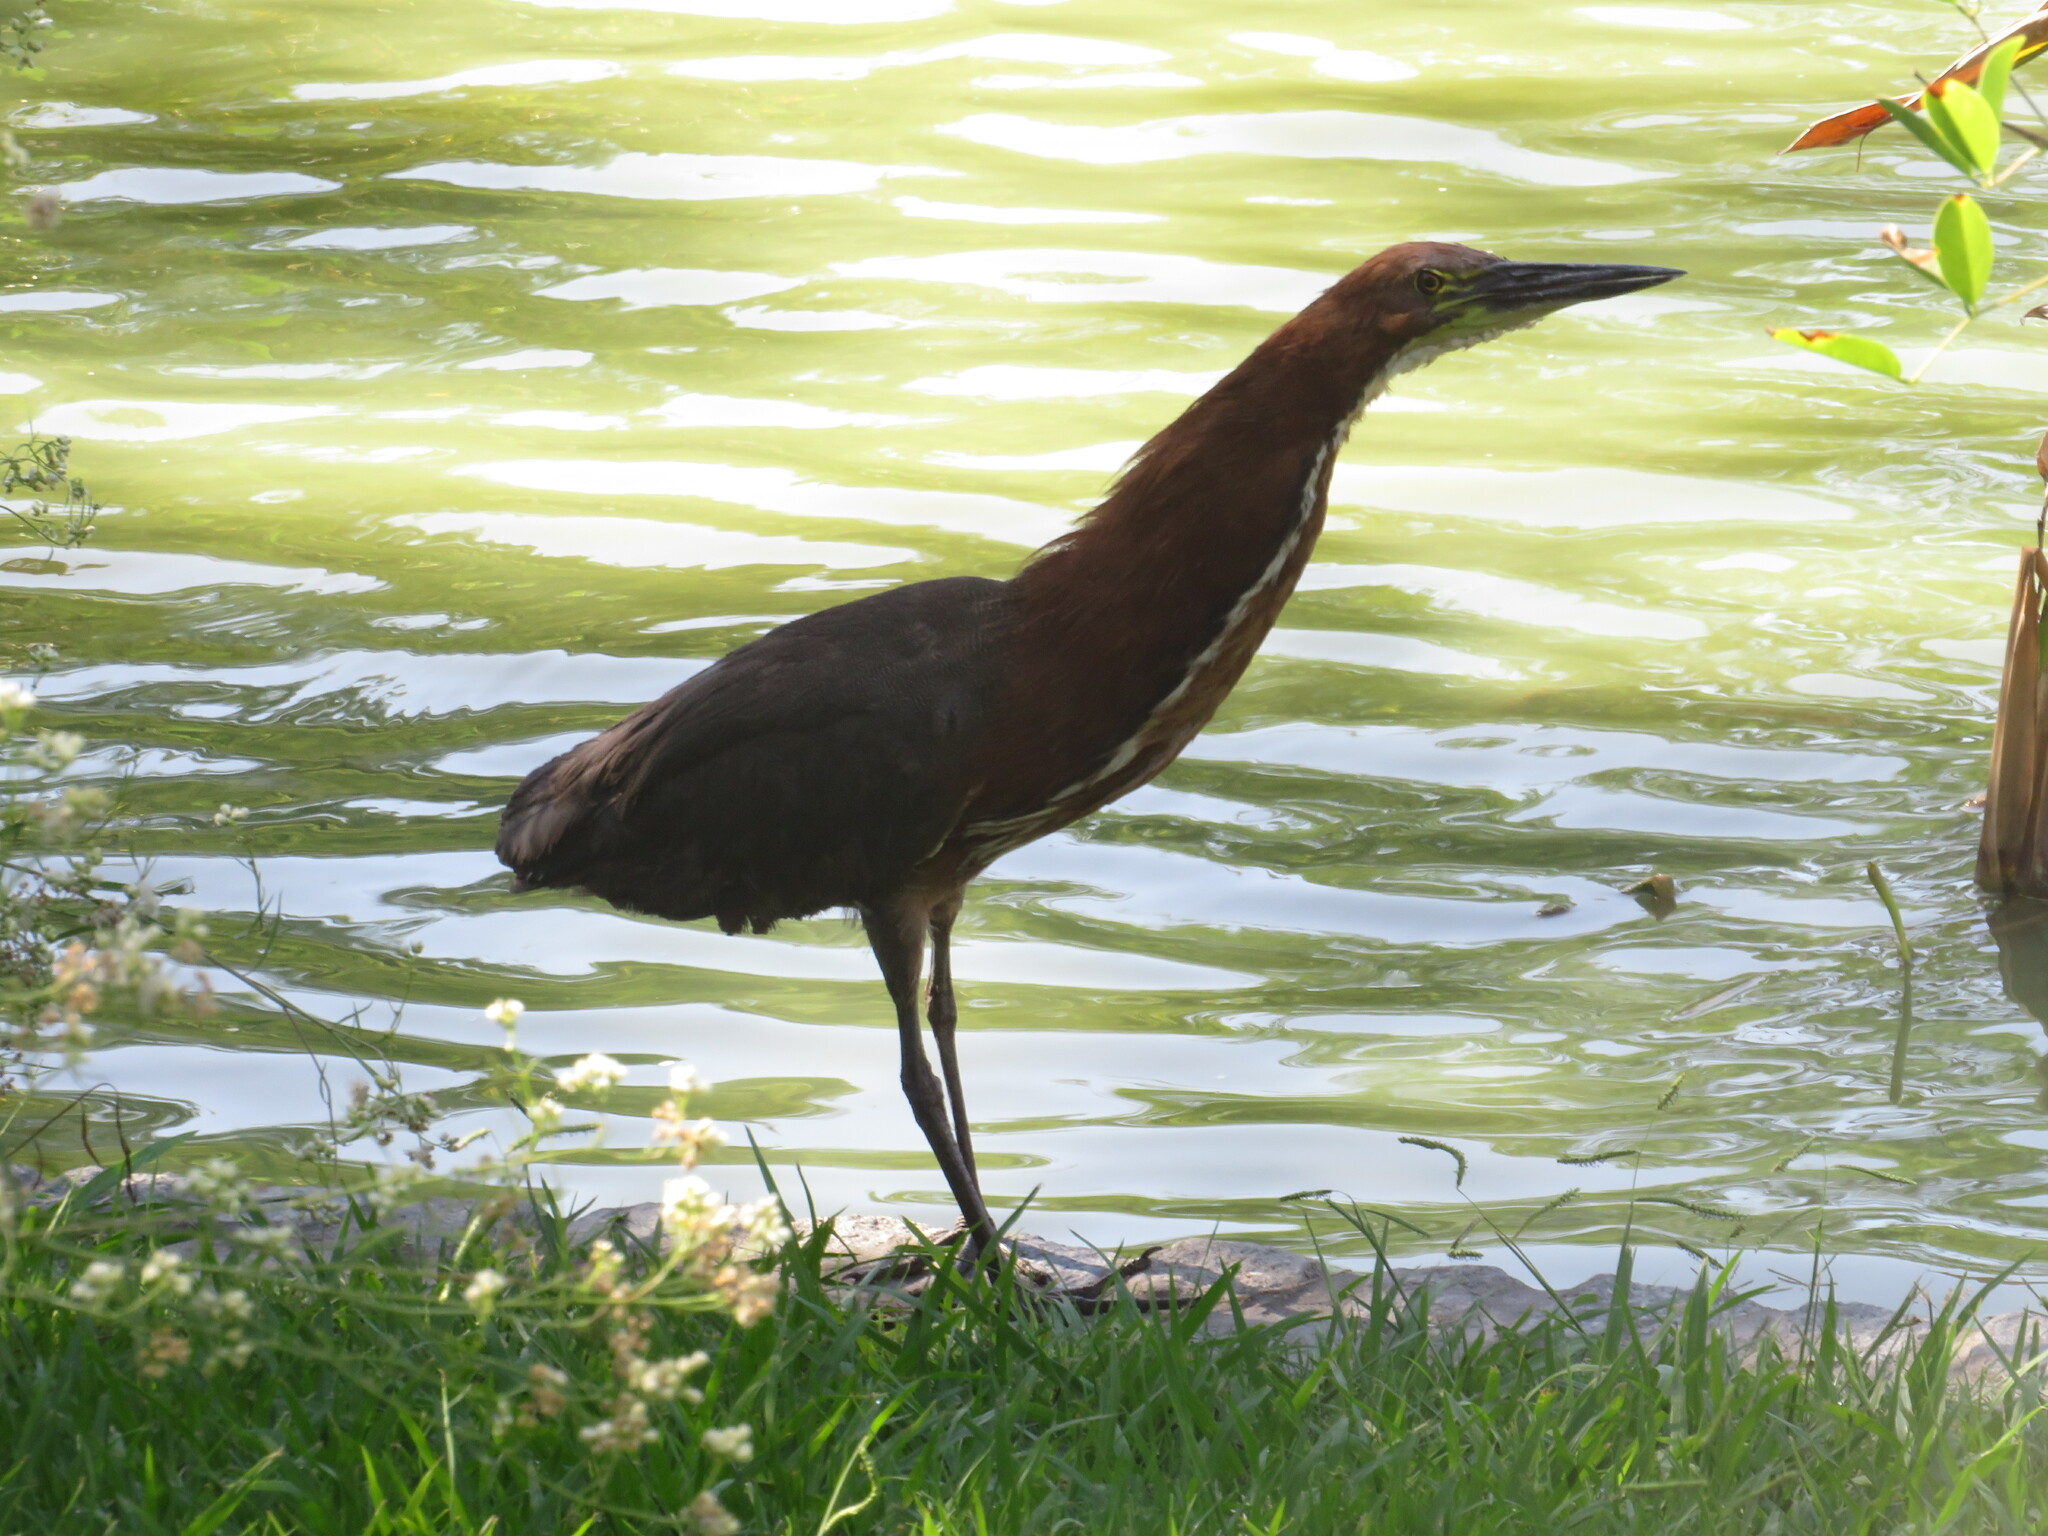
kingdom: Animalia
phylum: Chordata
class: Aves
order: Pelecaniformes
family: Ardeidae
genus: Tigrisoma
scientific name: Tigrisoma lineatum
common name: Rufescent tiger-heron
